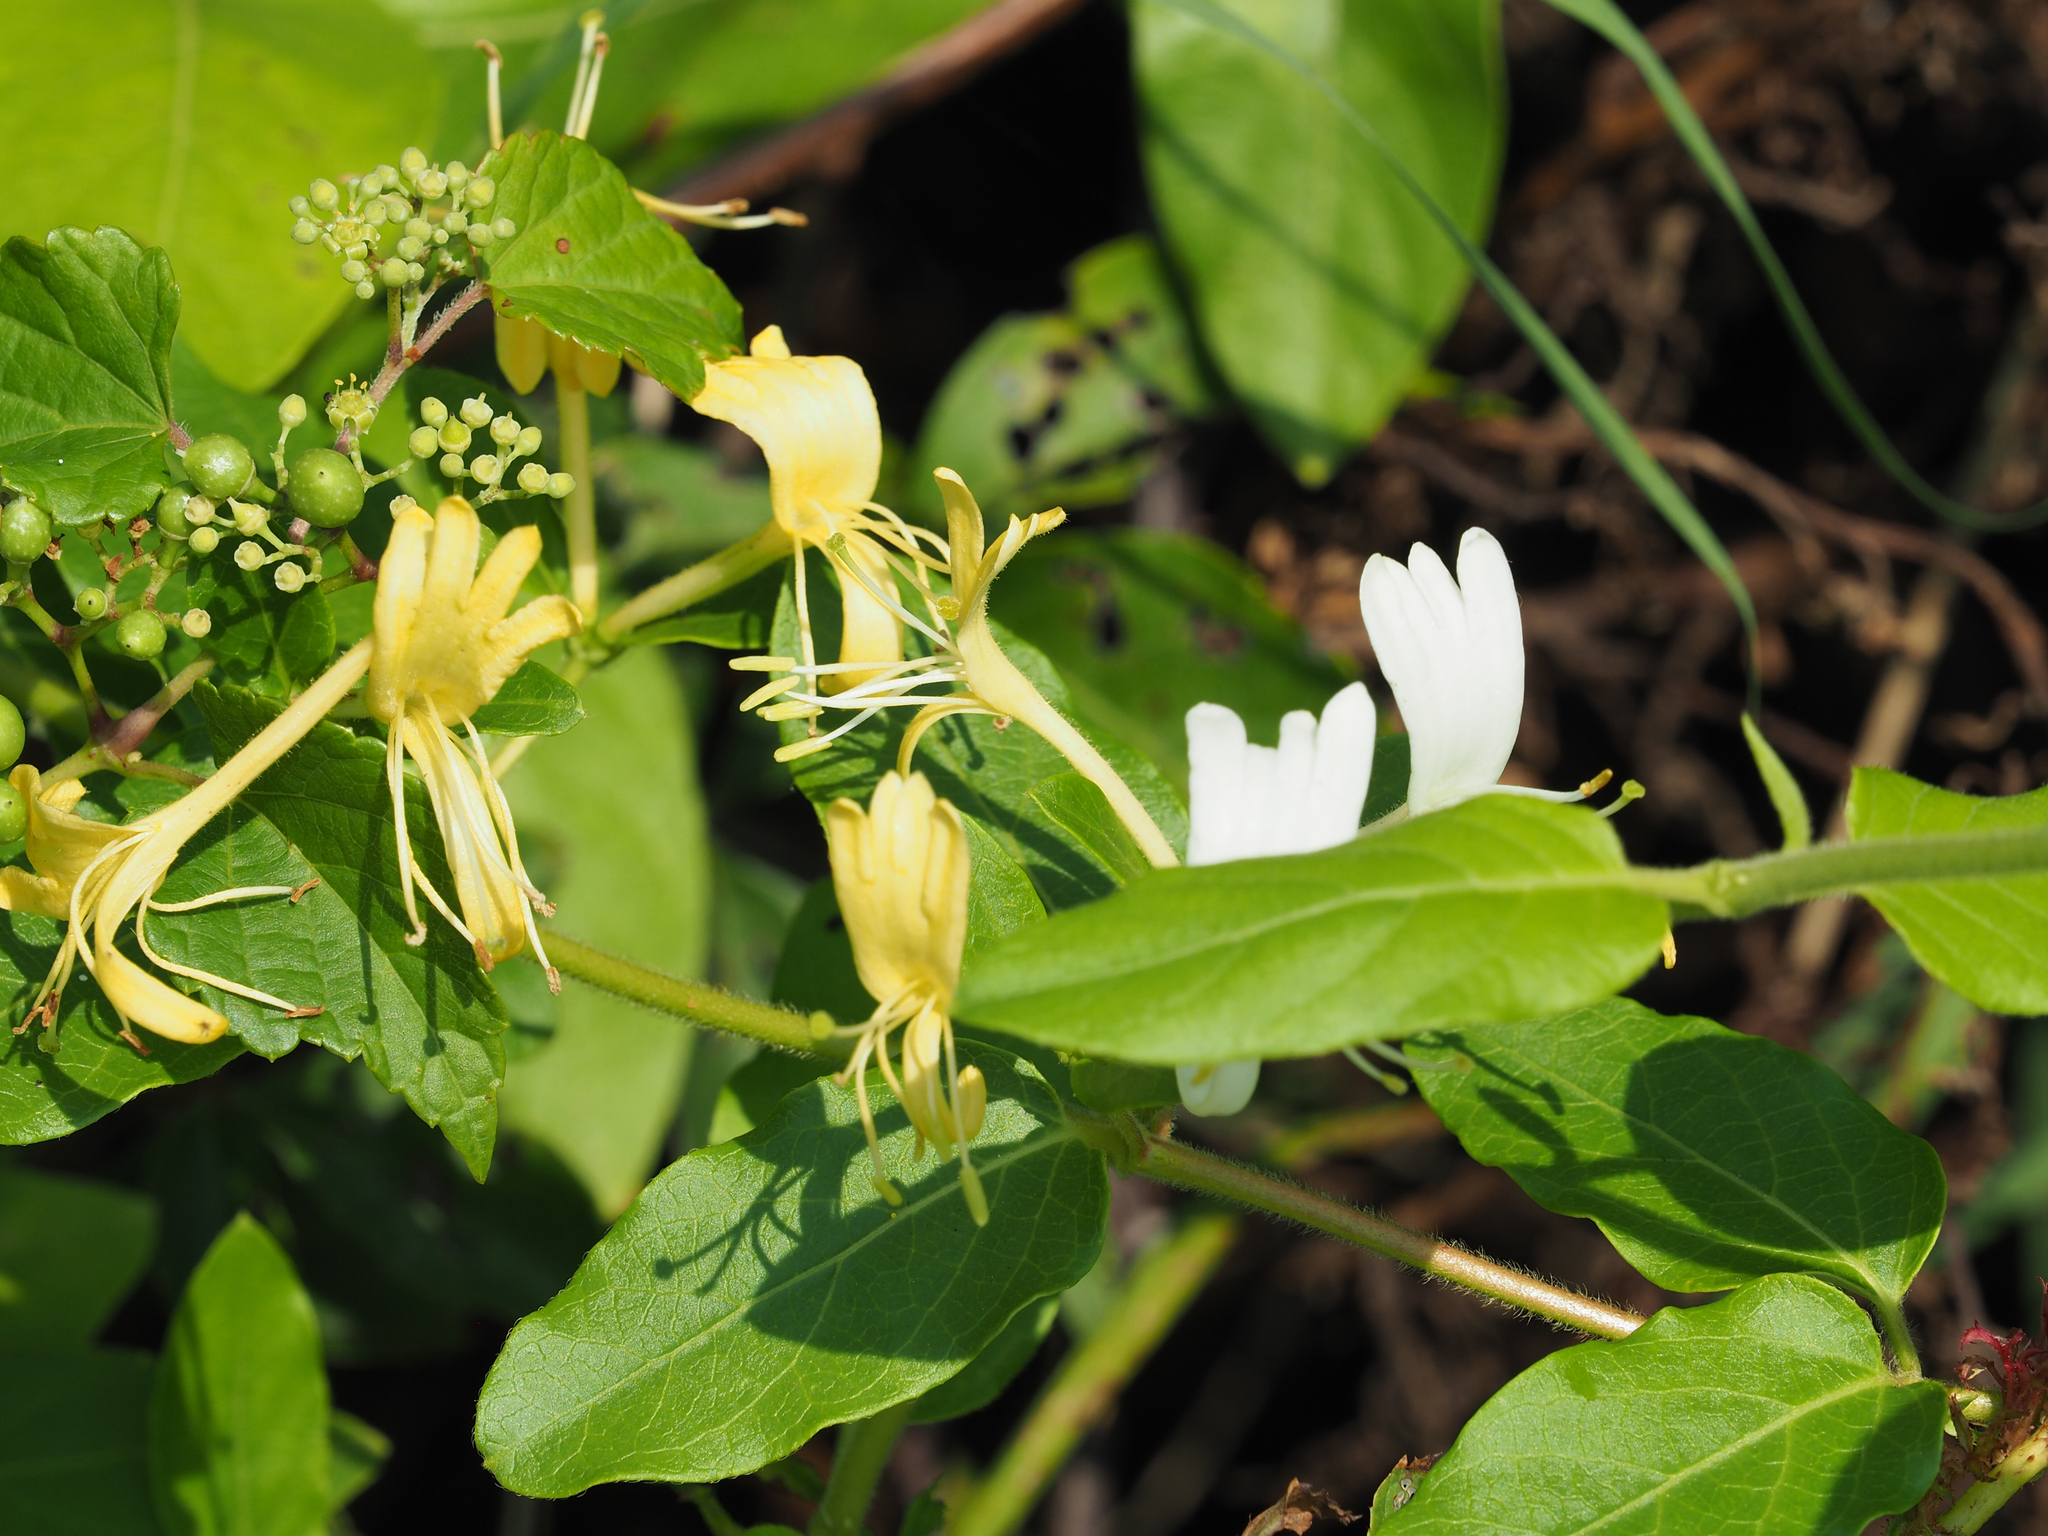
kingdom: Plantae
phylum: Tracheophyta
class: Magnoliopsida
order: Dipsacales
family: Caprifoliaceae
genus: Lonicera
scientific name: Lonicera japonica
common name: Japanese honeysuckle
